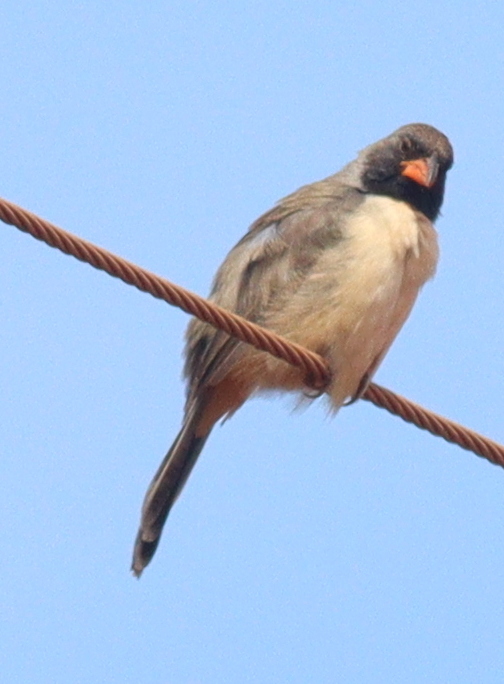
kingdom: Animalia
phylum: Chordata
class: Aves
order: Passeriformes
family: Thraupidae
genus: Saltatricula
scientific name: Saltatricula atricollis
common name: Black-throated saltator
